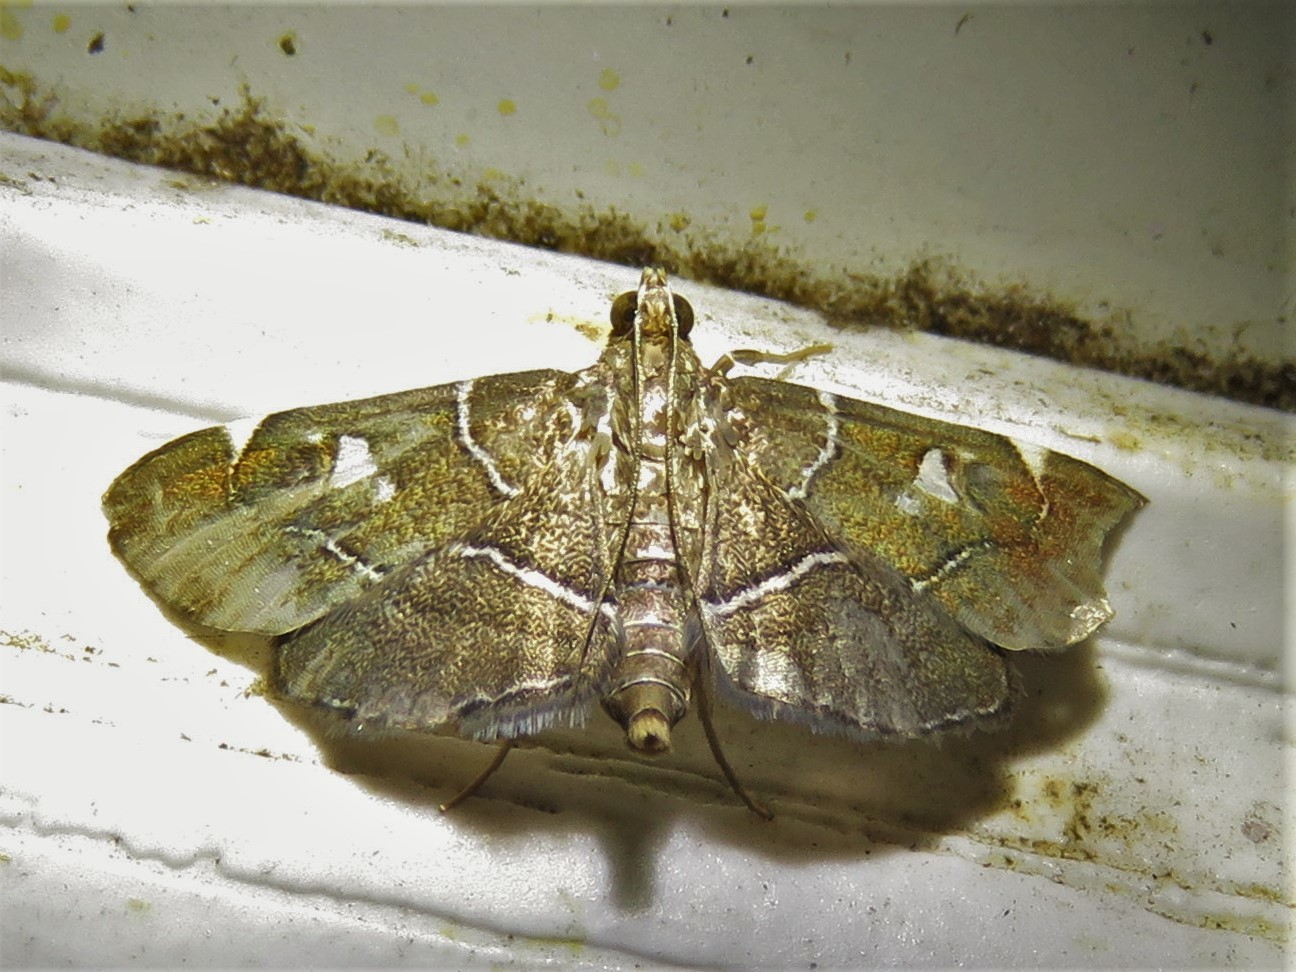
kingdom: Animalia
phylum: Arthropoda
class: Insecta
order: Lepidoptera
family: Crambidae
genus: Lamprosema
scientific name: Lamprosema victoriae
